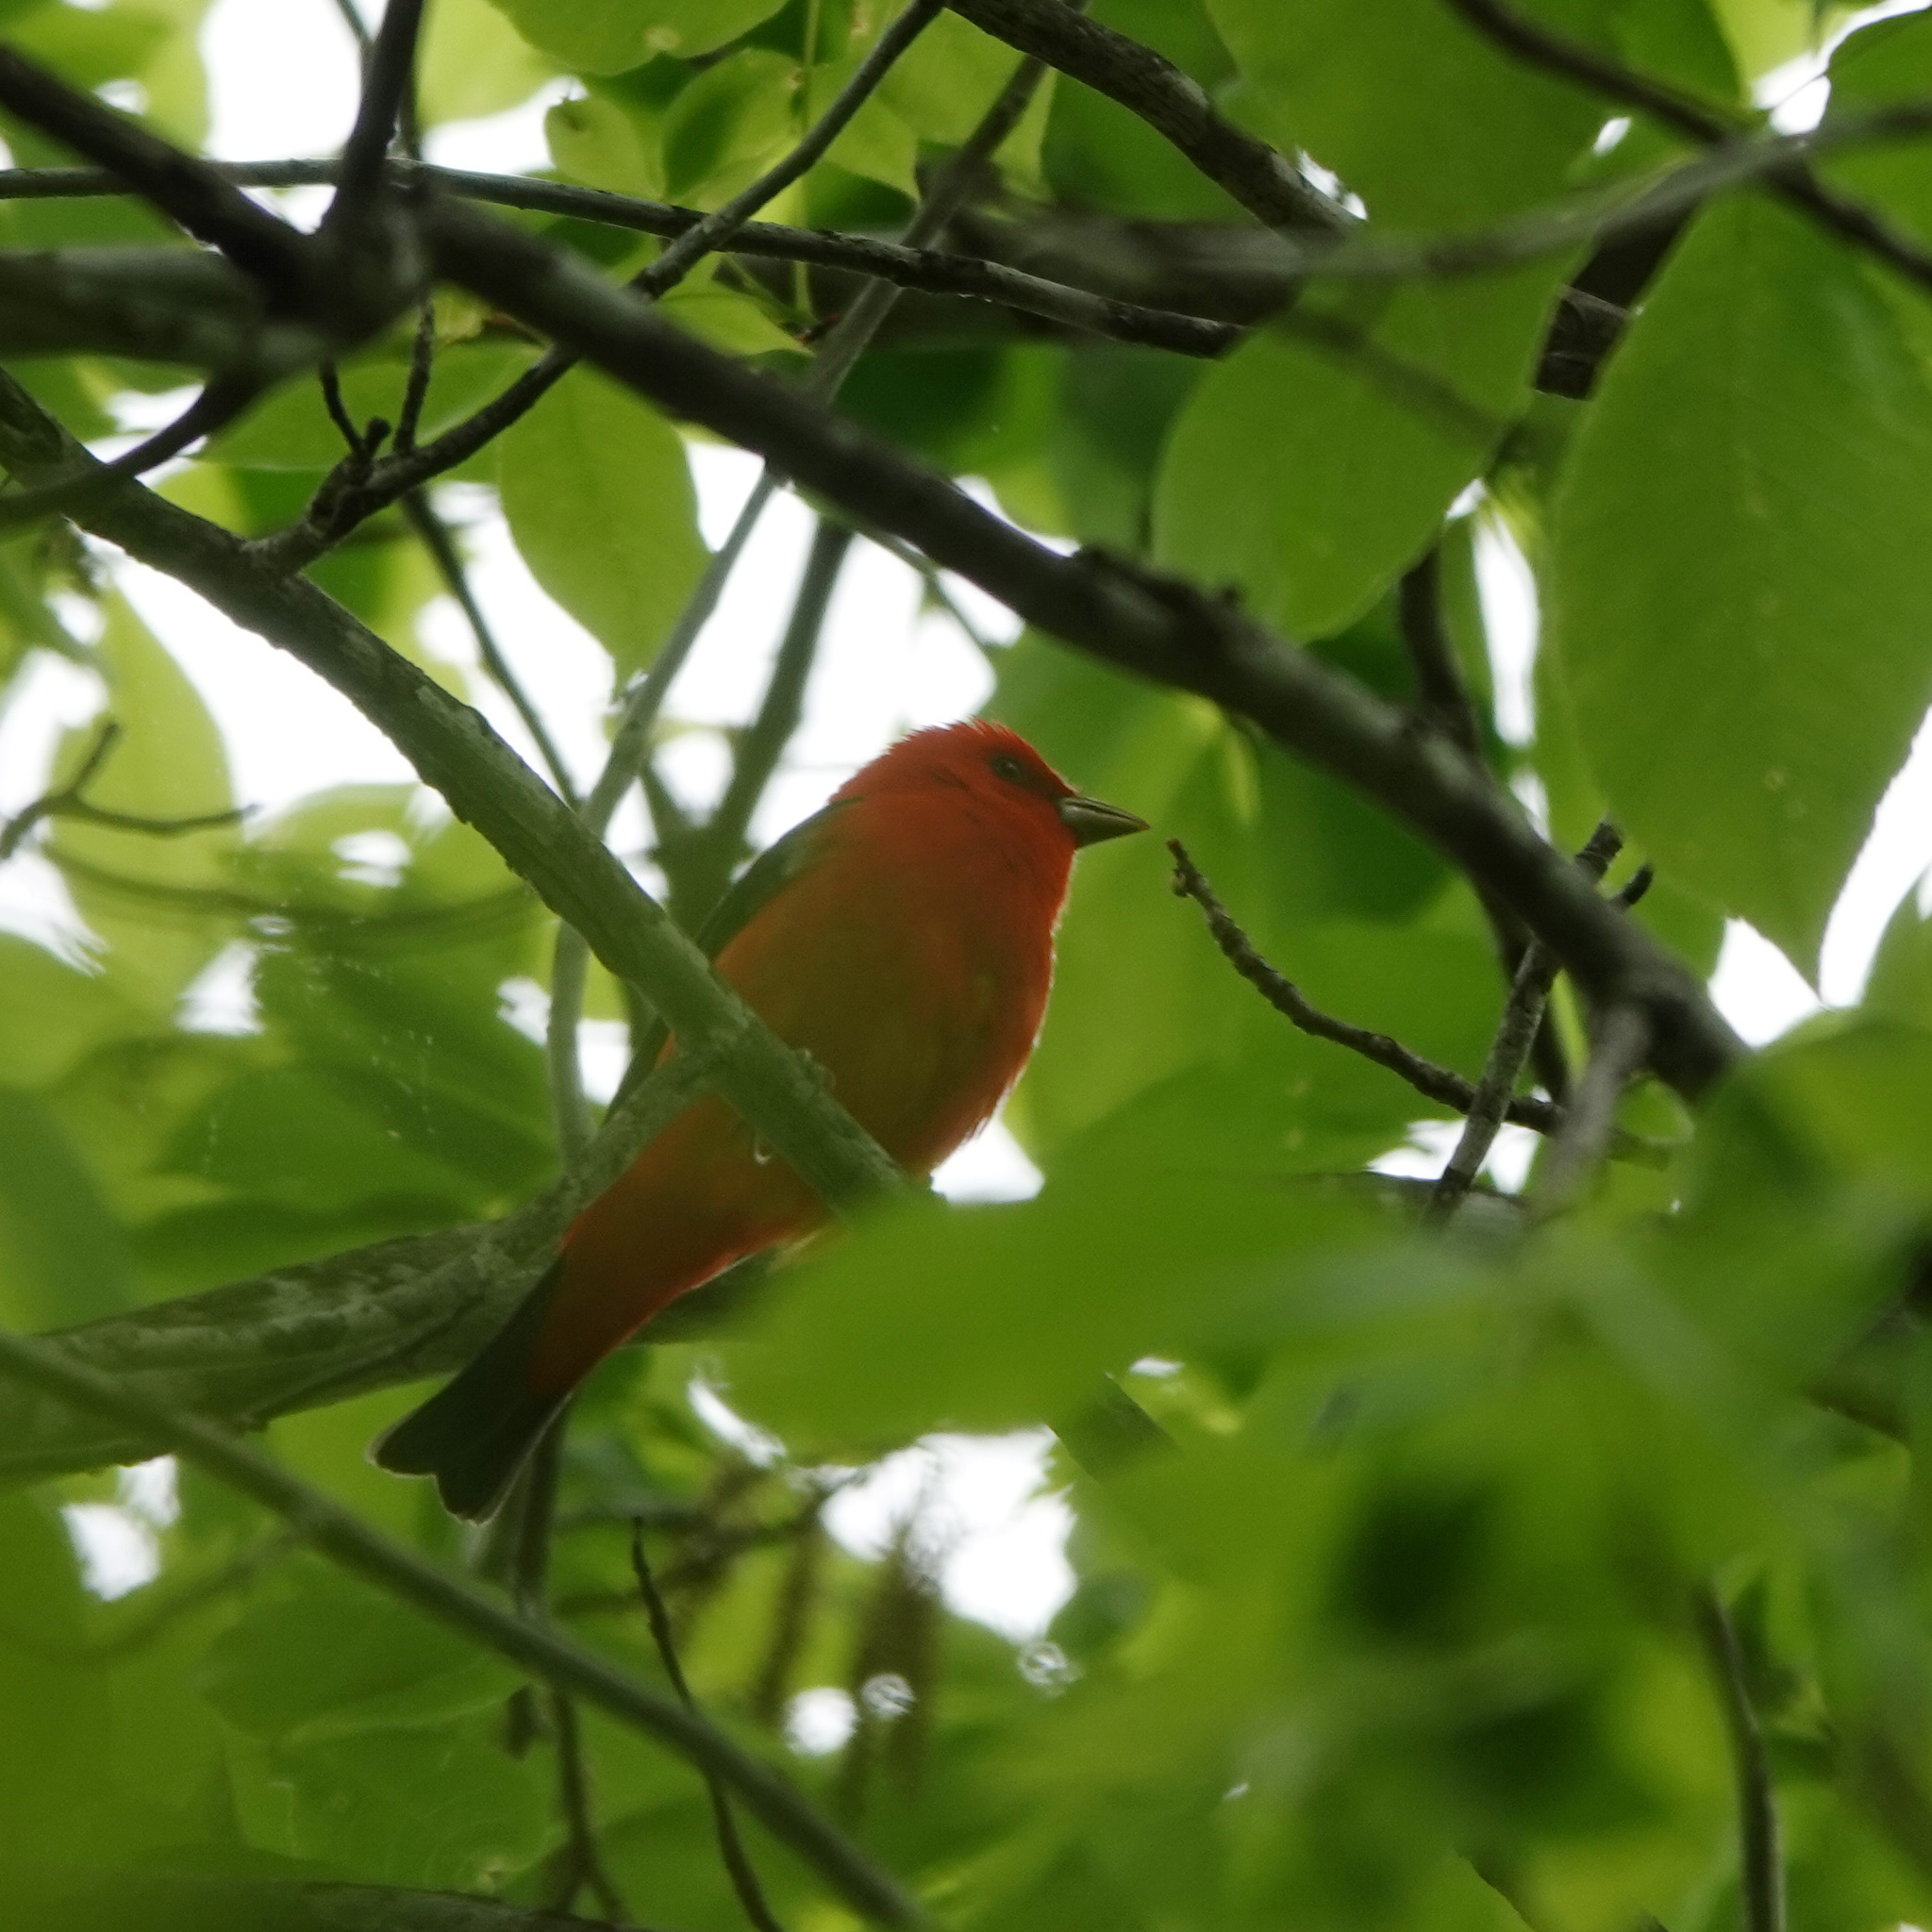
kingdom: Animalia
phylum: Chordata
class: Aves
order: Passeriformes
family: Cardinalidae
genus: Piranga
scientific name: Piranga olivacea
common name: Scarlet tanager
